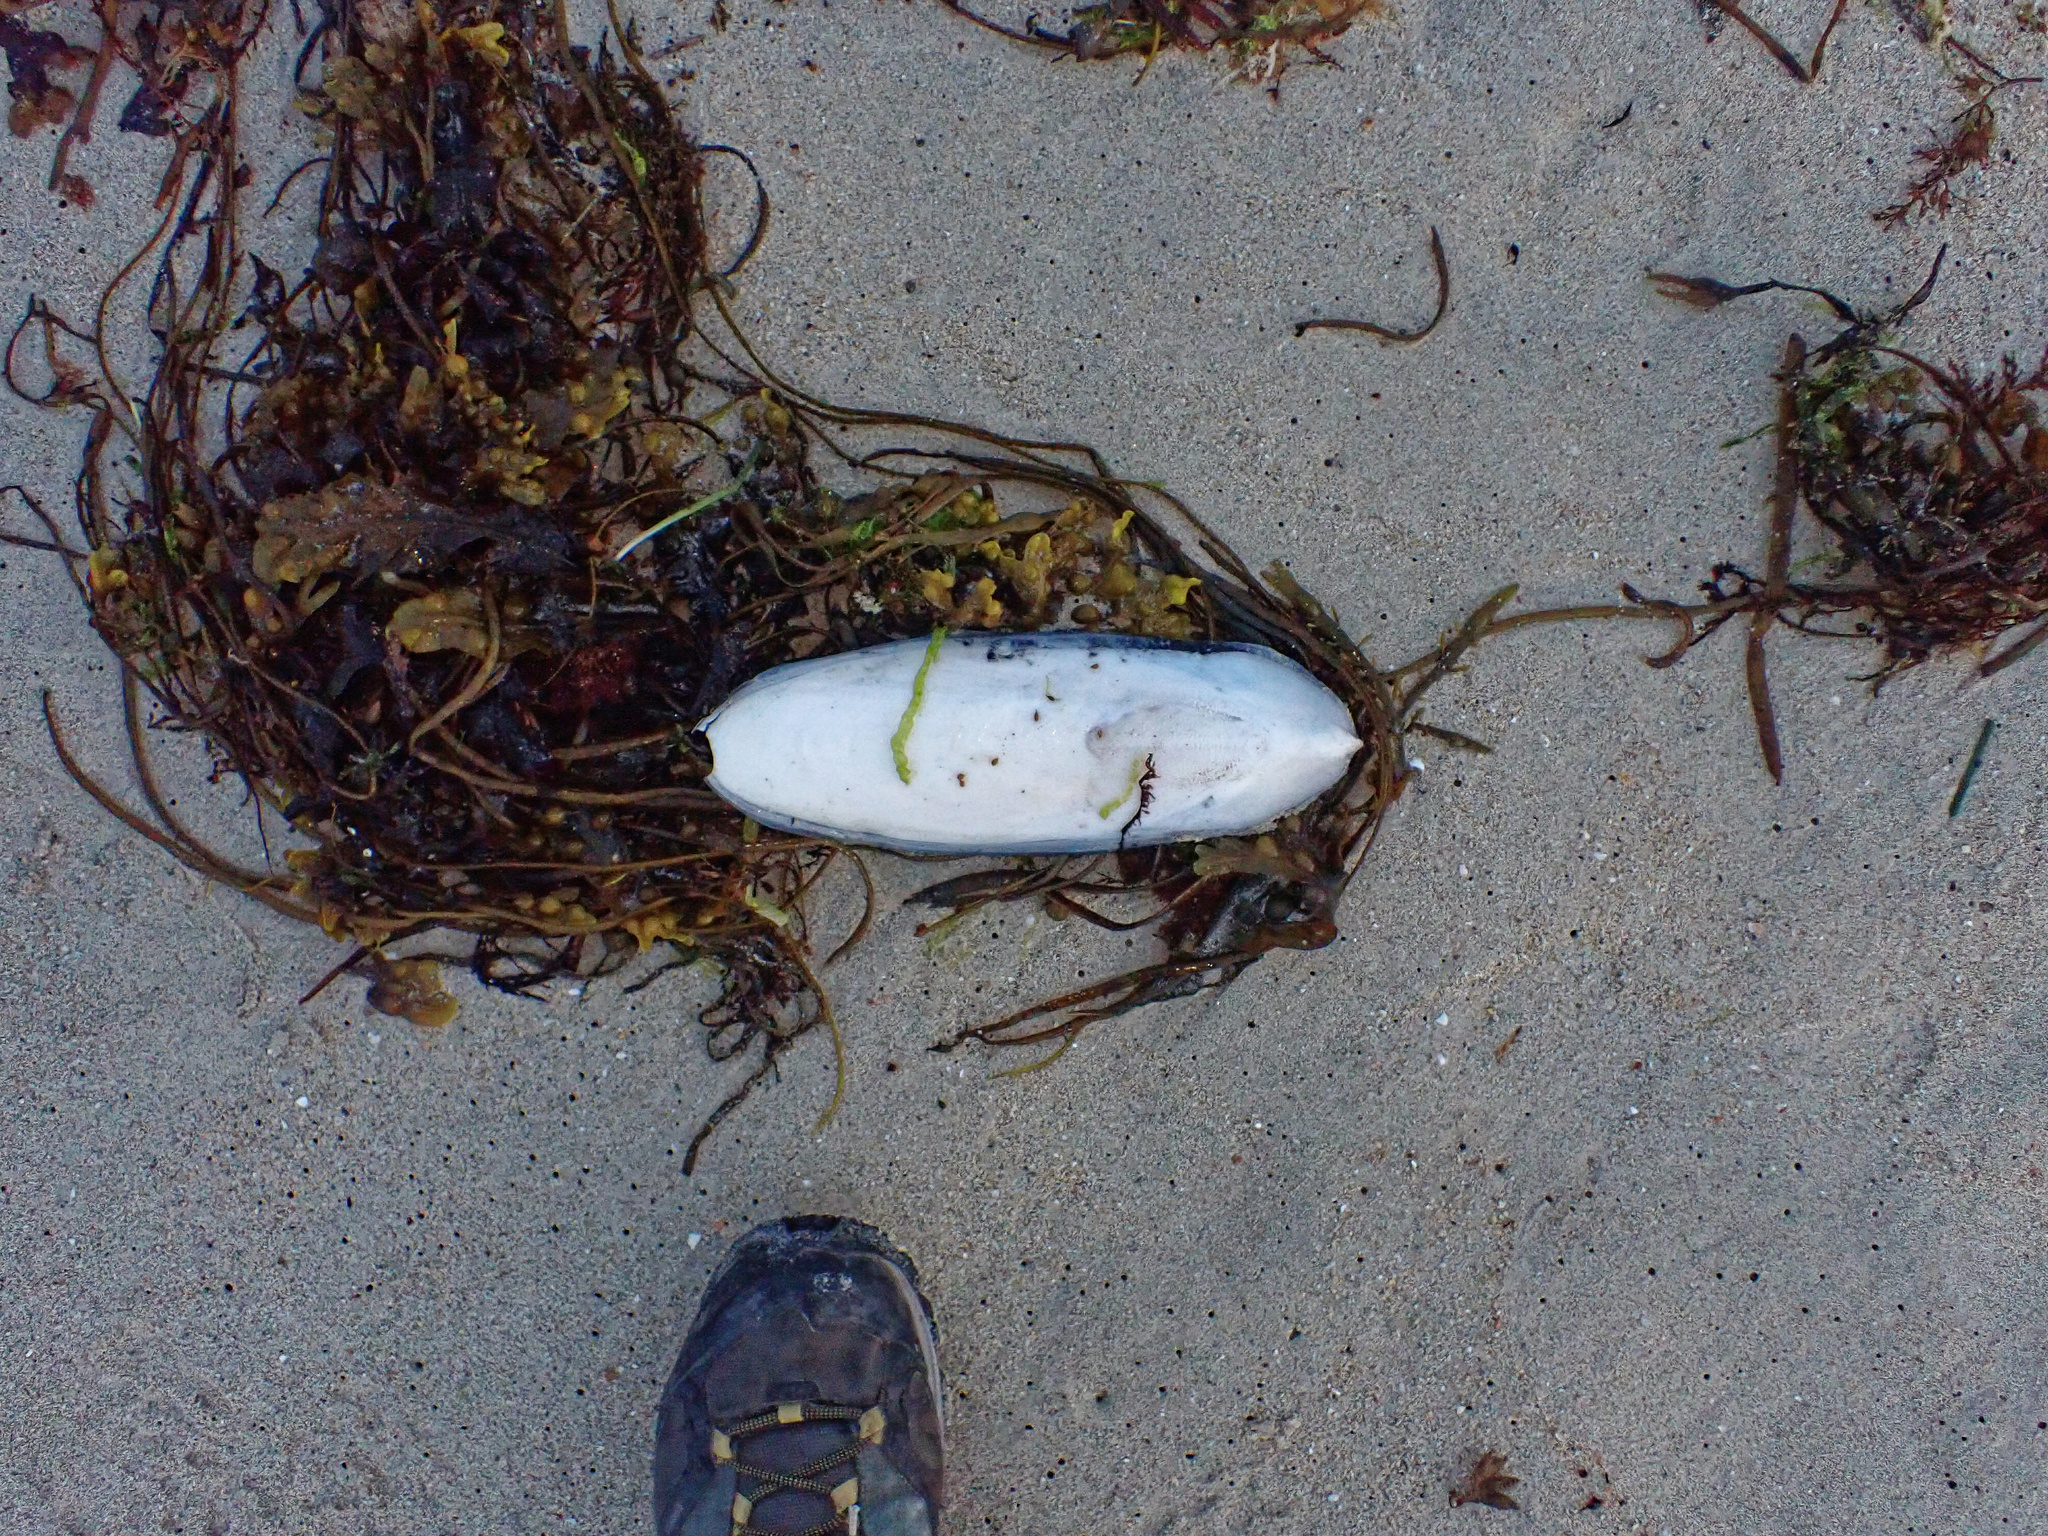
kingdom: Animalia
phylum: Mollusca
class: Cephalopoda
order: Sepiida
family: Sepiidae
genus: Sepia
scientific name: Sepia officinalis
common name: Common cuttlefish
